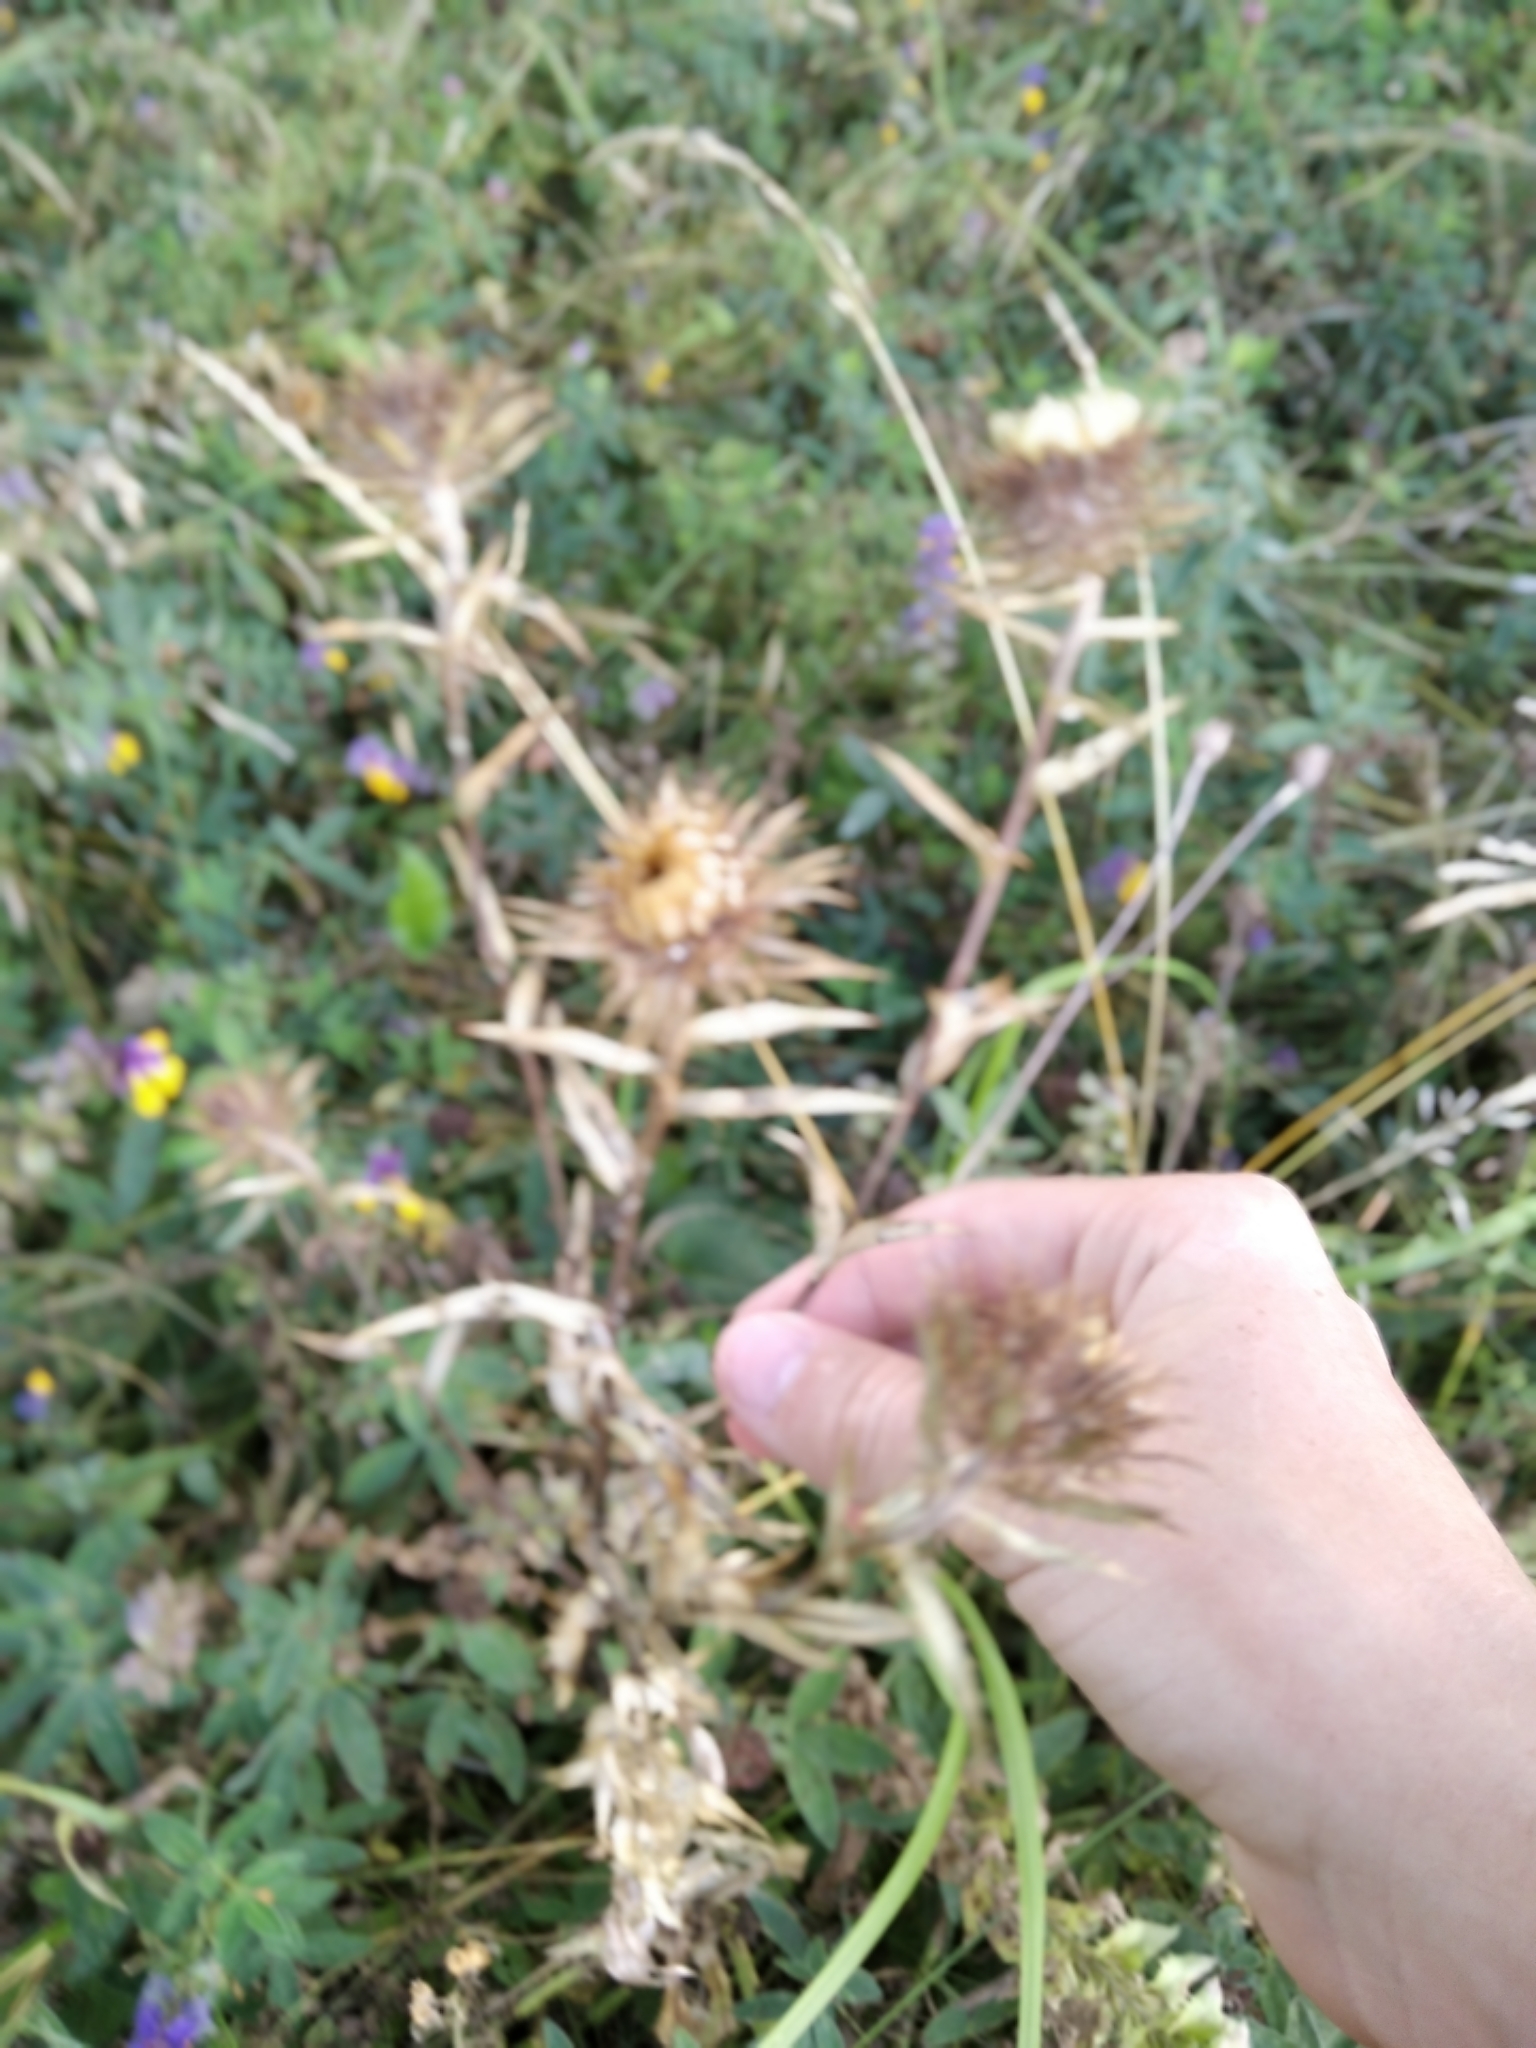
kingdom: Plantae
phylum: Tracheophyta
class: Magnoliopsida
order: Asterales
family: Asteraceae
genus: Carlina
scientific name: Carlina biebersteinii
